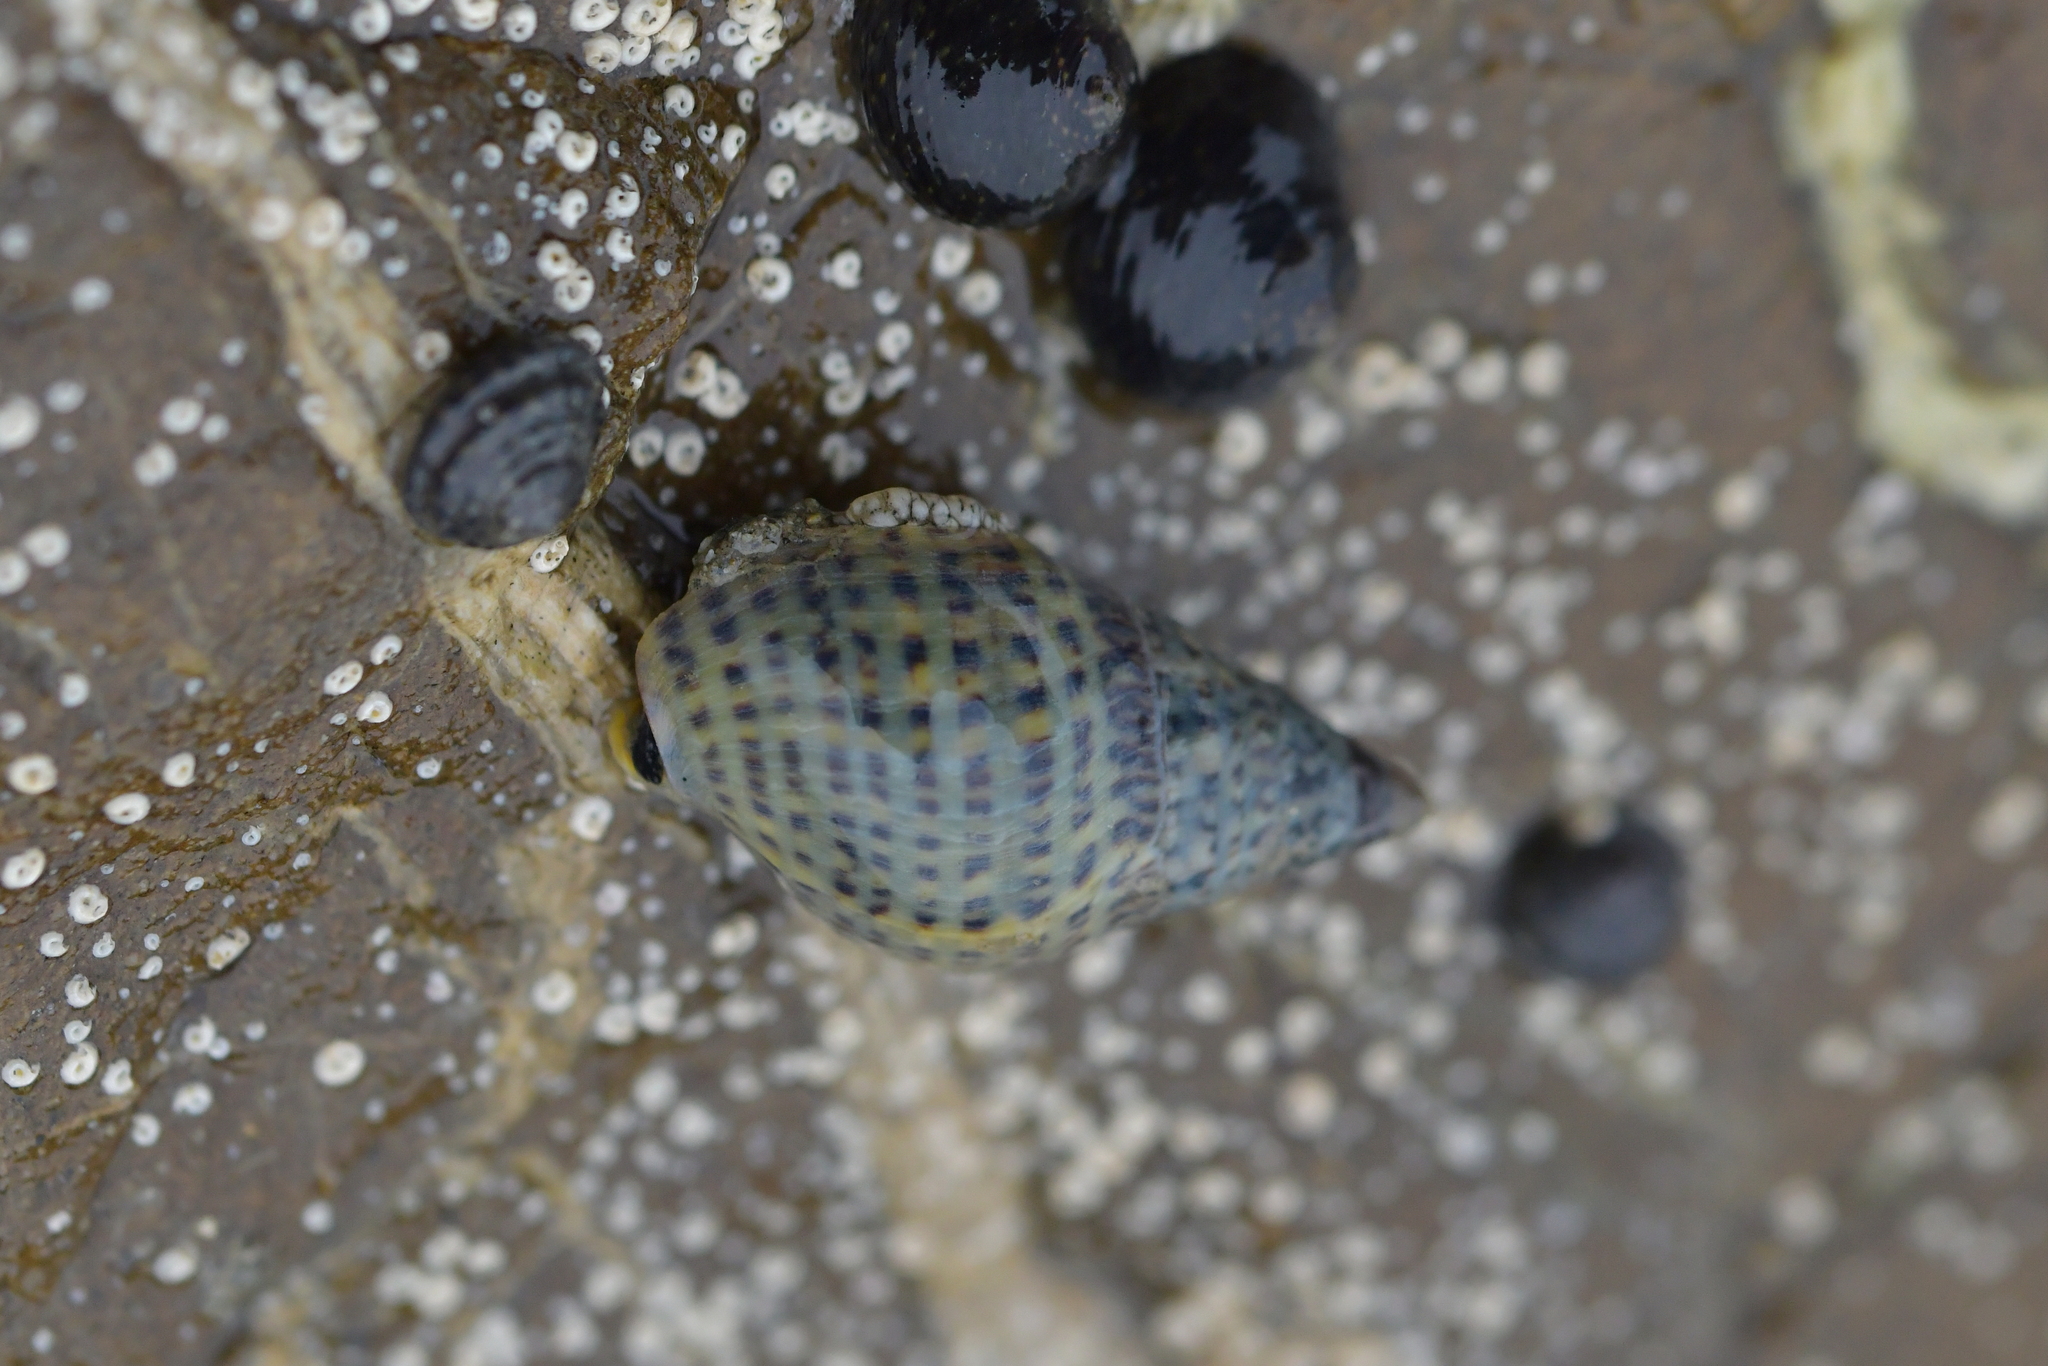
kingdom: Animalia
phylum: Mollusca
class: Gastropoda
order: Neogastropoda
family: Cominellidae
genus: Cominella
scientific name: Cominella maculosa
